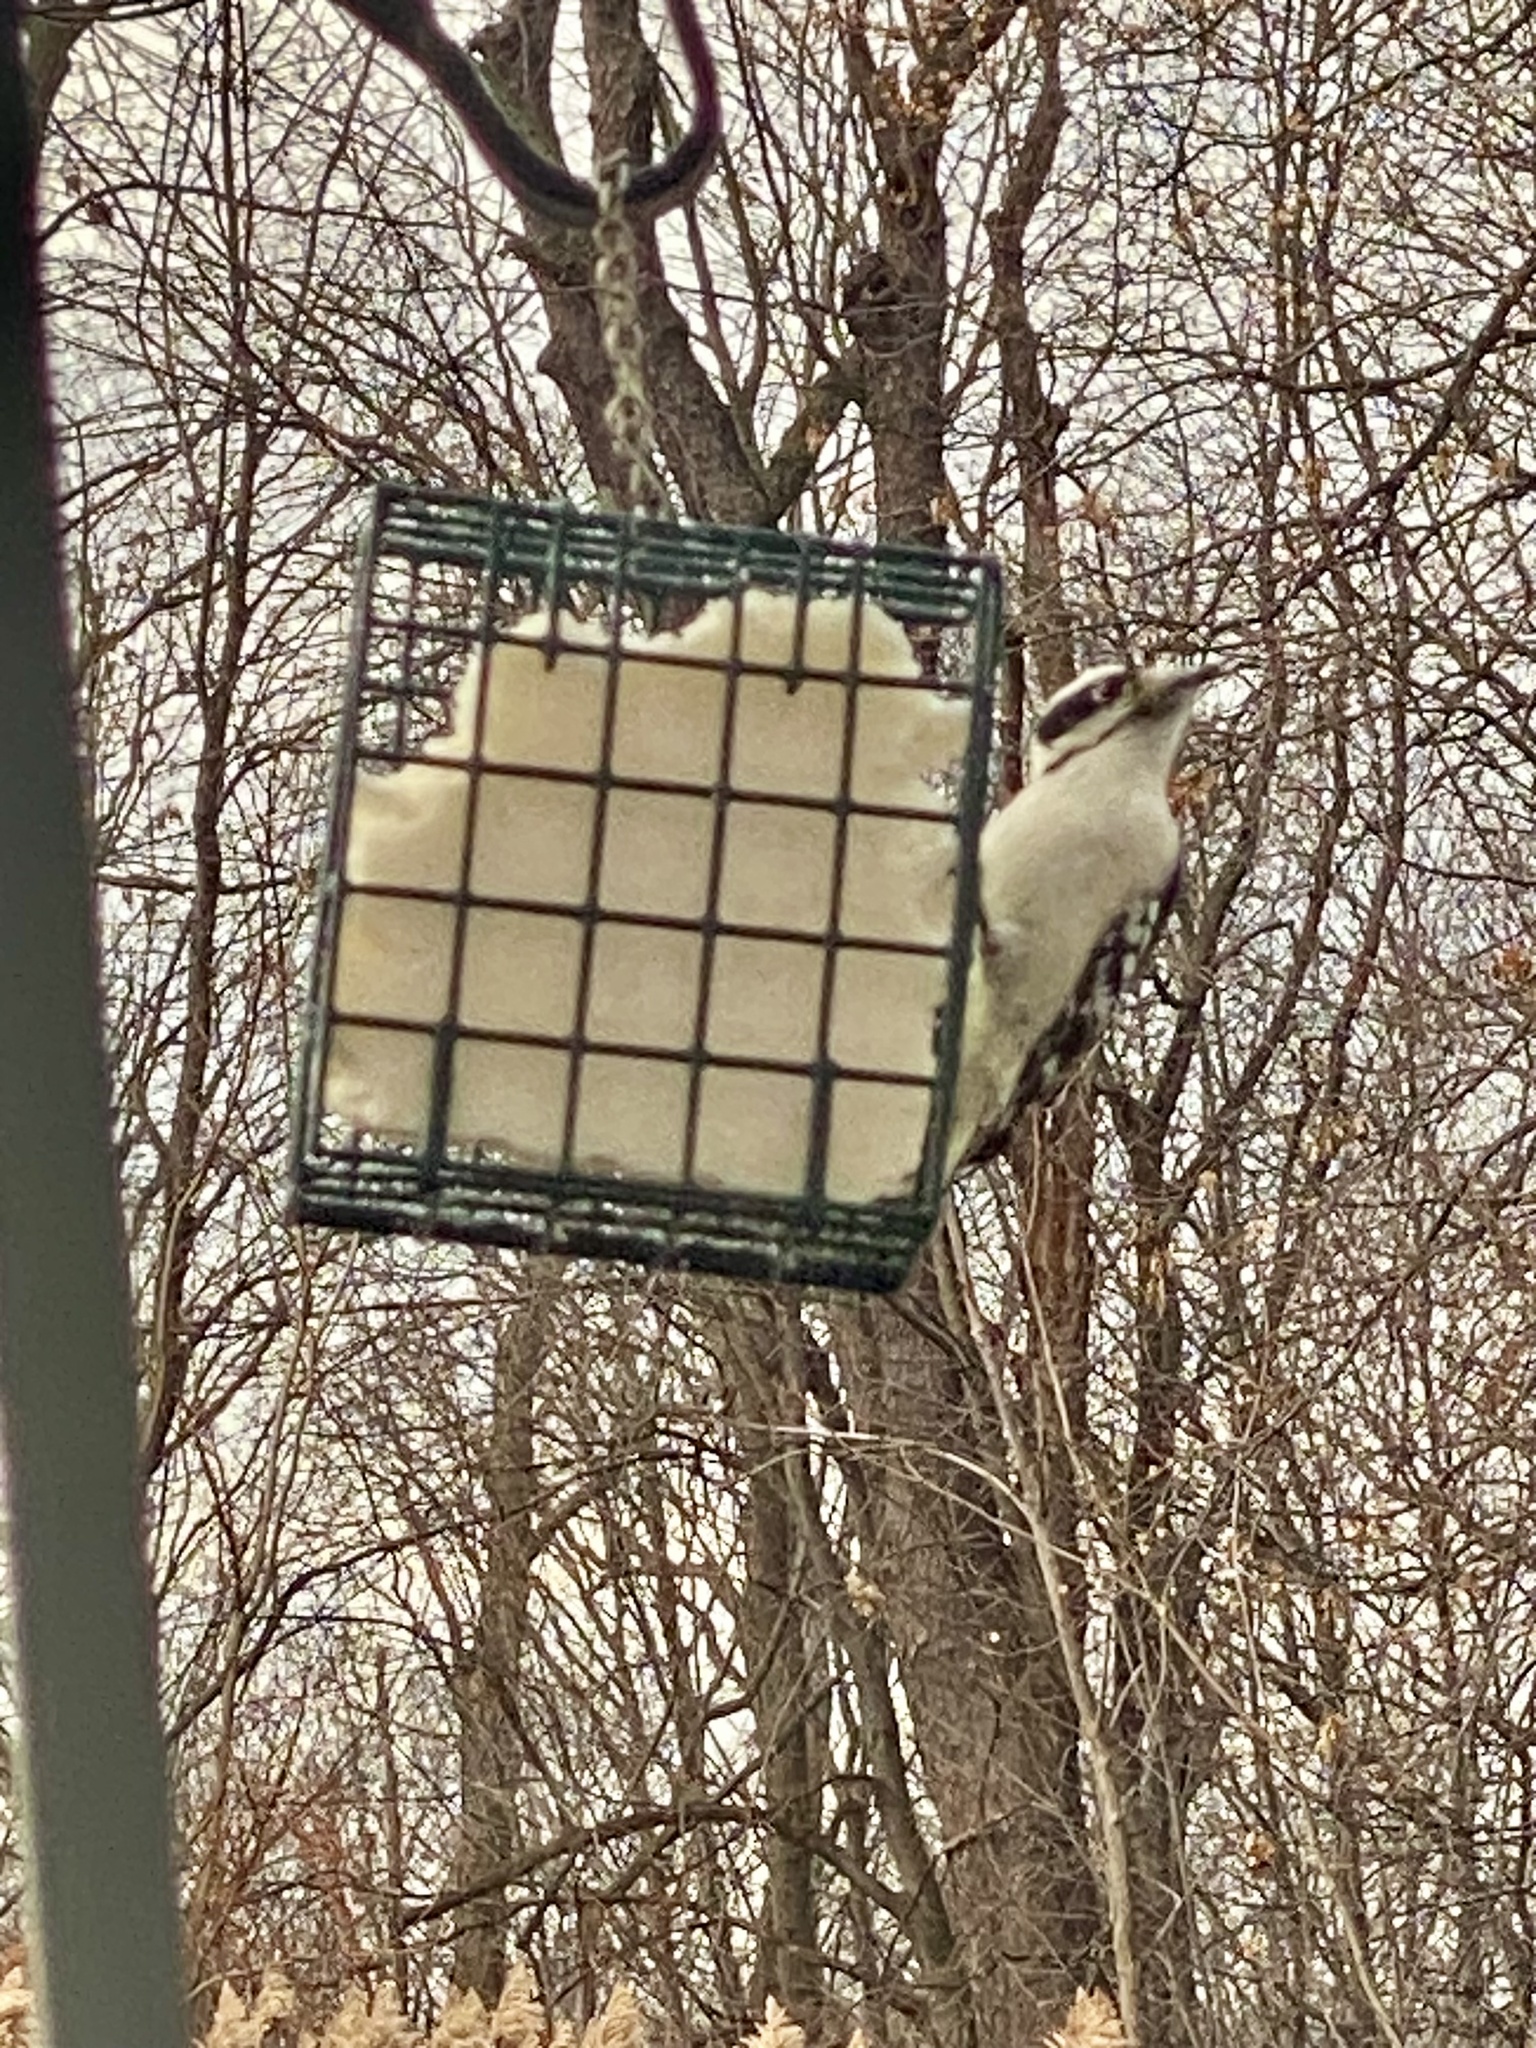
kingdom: Animalia
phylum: Chordata
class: Aves
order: Piciformes
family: Picidae
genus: Dryobates
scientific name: Dryobates pubescens
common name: Downy woodpecker
